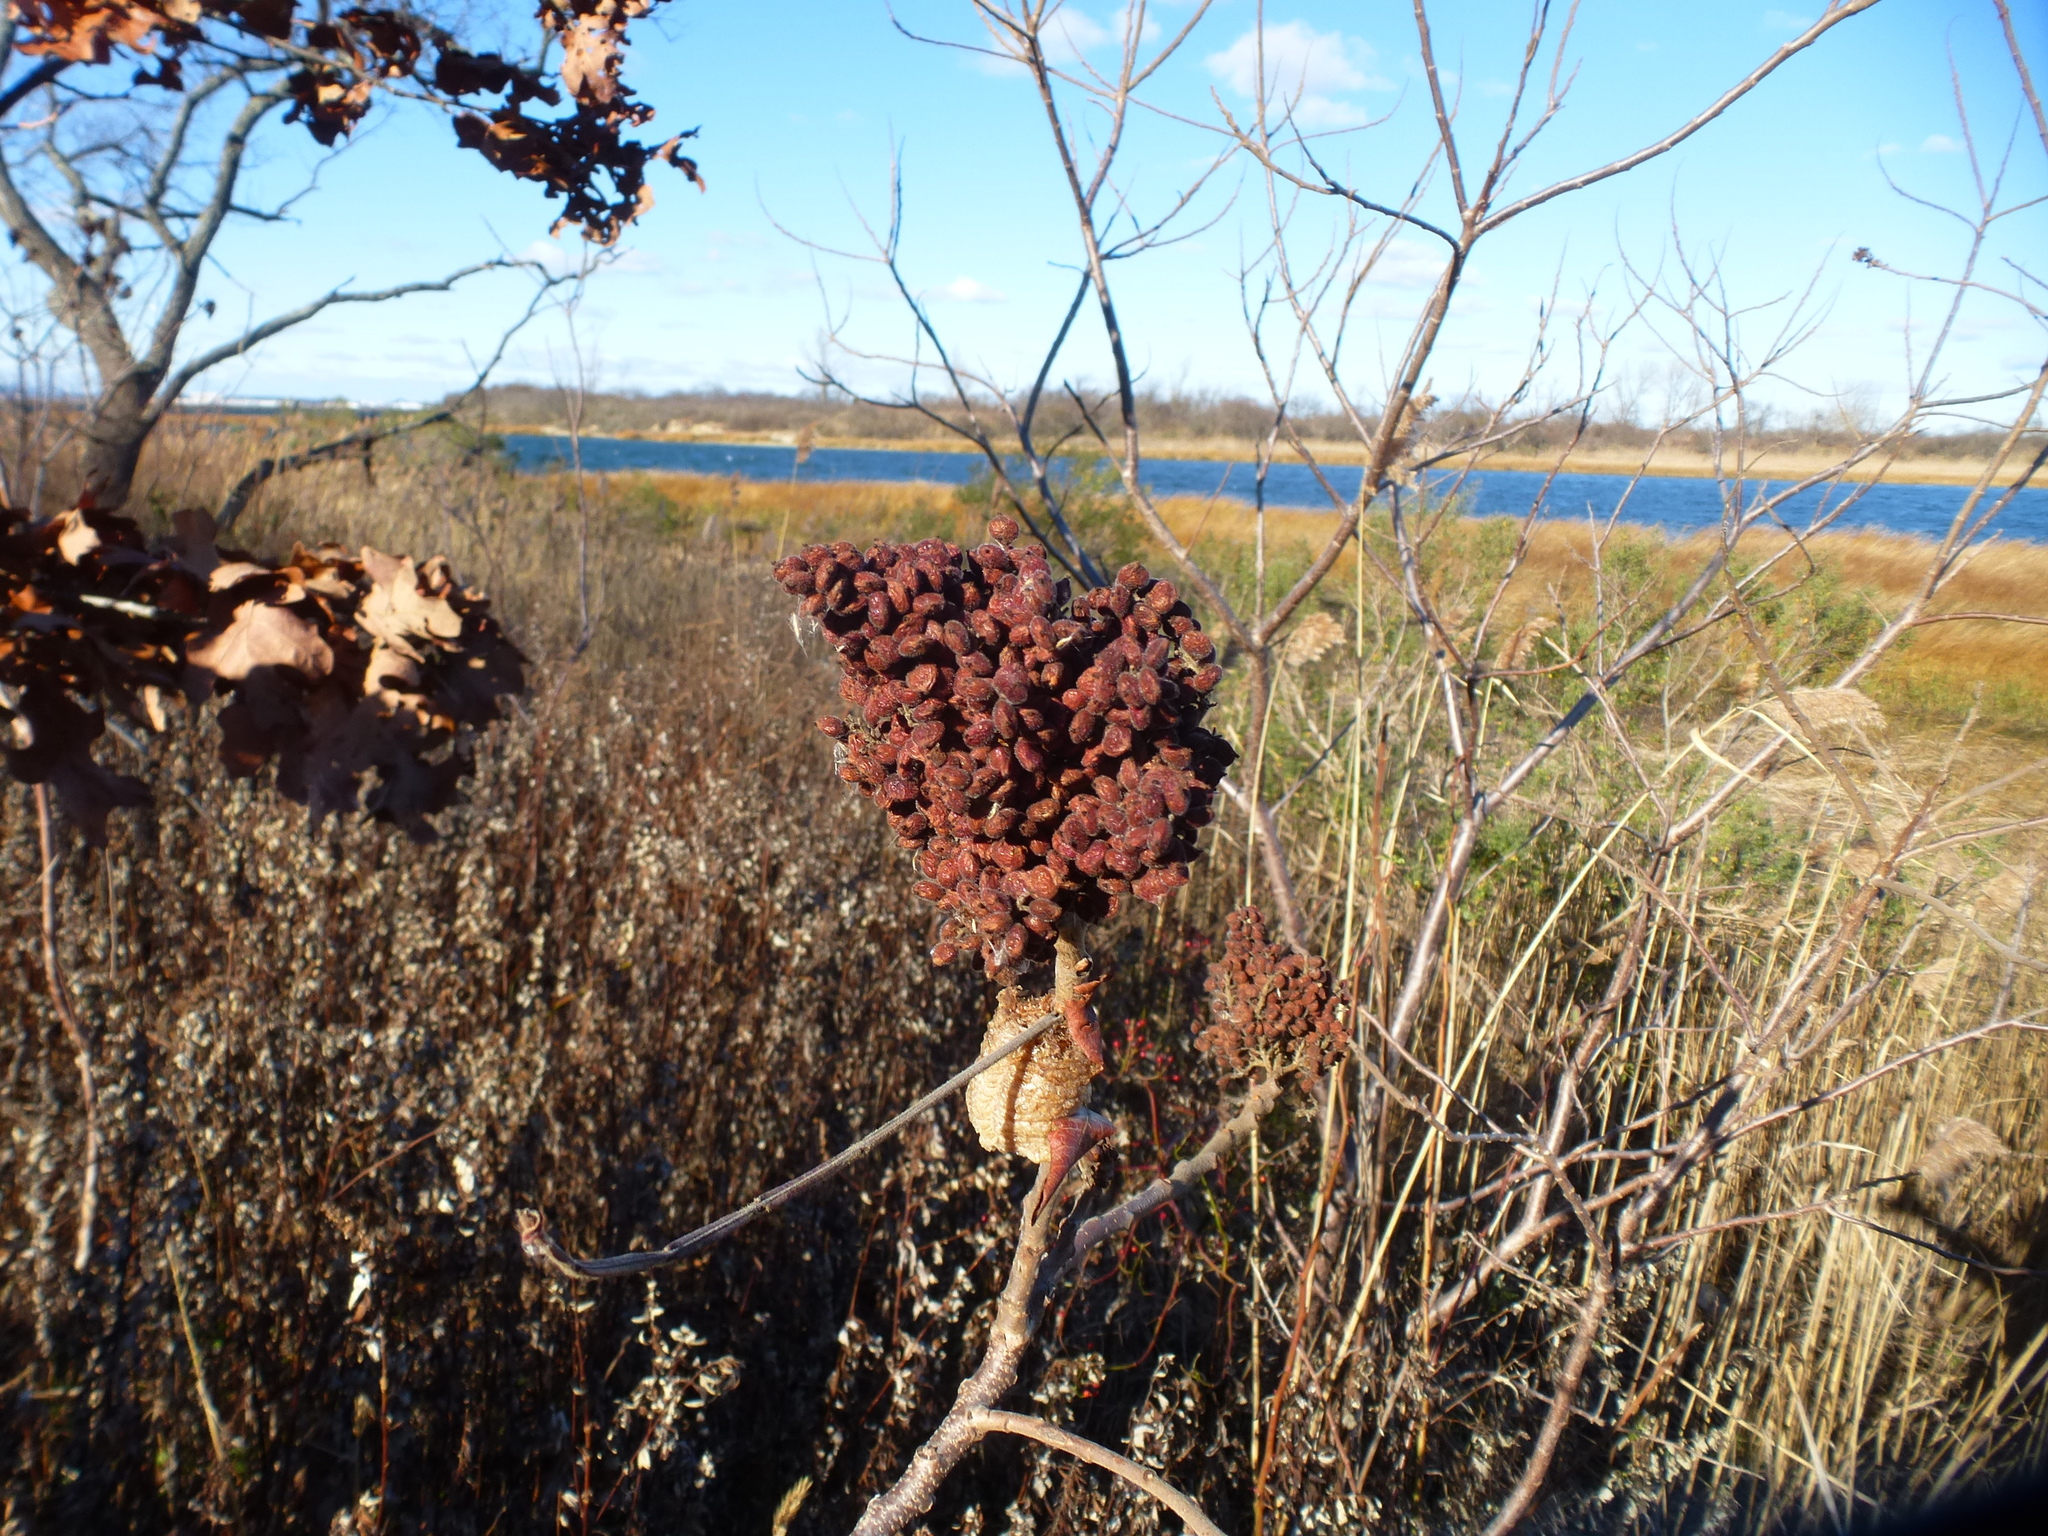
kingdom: Plantae
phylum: Tracheophyta
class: Magnoliopsida
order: Sapindales
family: Anacardiaceae
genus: Rhus
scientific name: Rhus copallina
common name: Shining sumac
